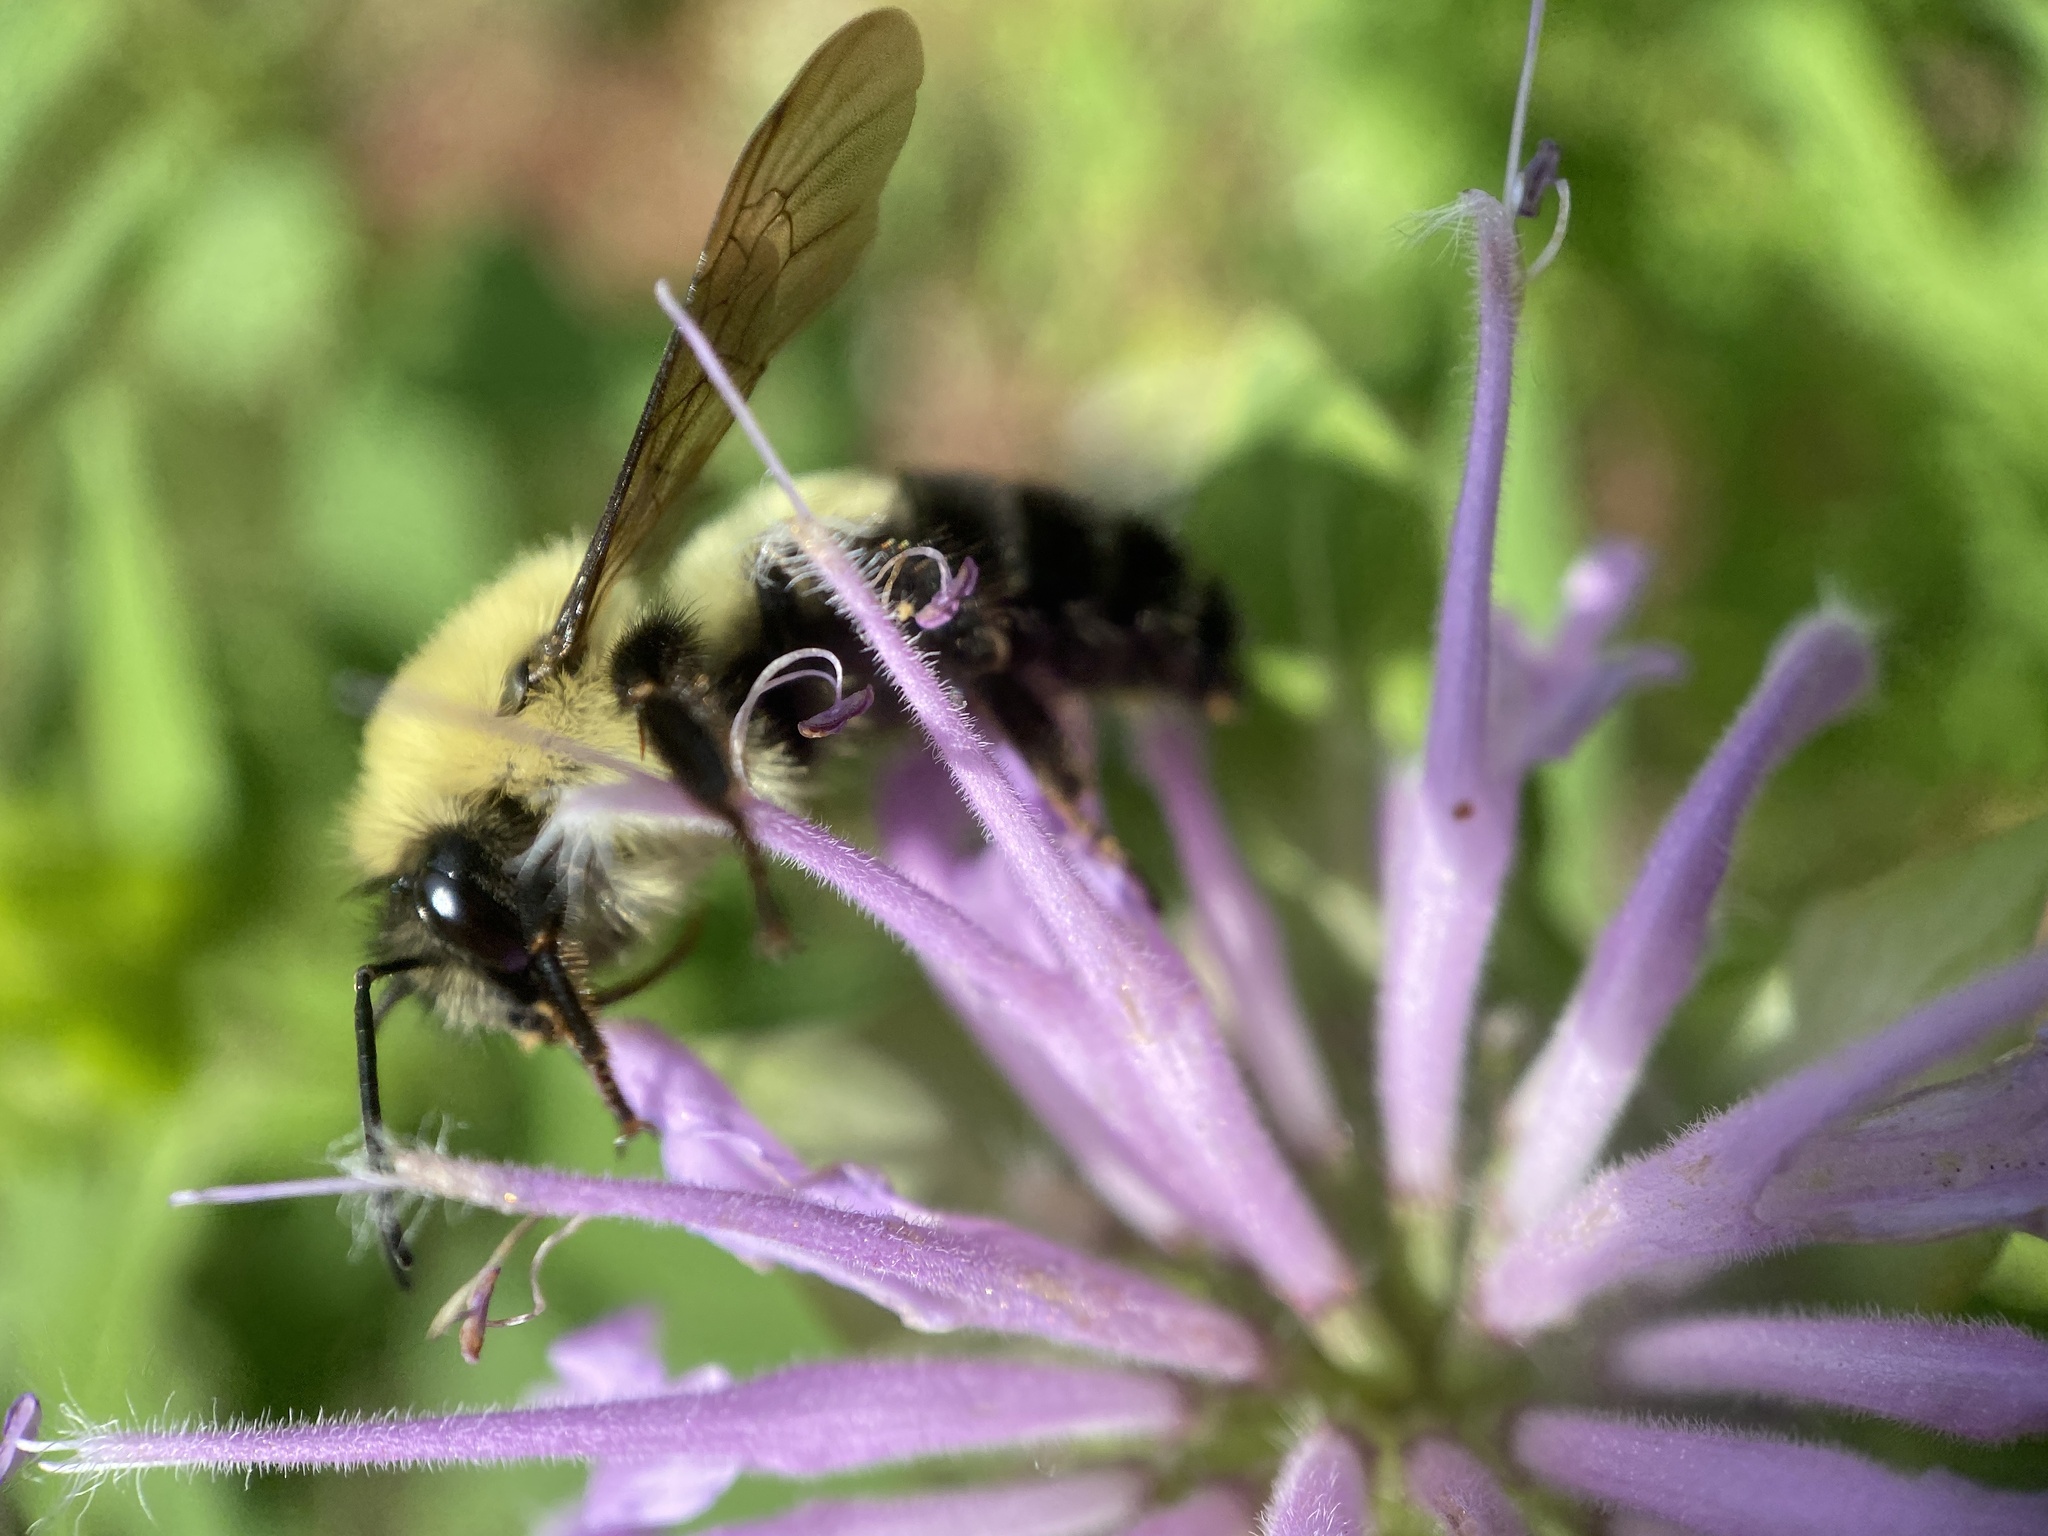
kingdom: Animalia
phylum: Arthropoda
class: Insecta
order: Hymenoptera
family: Apidae
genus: Bombus
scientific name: Bombus bimaculatus
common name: Two-spotted bumble bee
